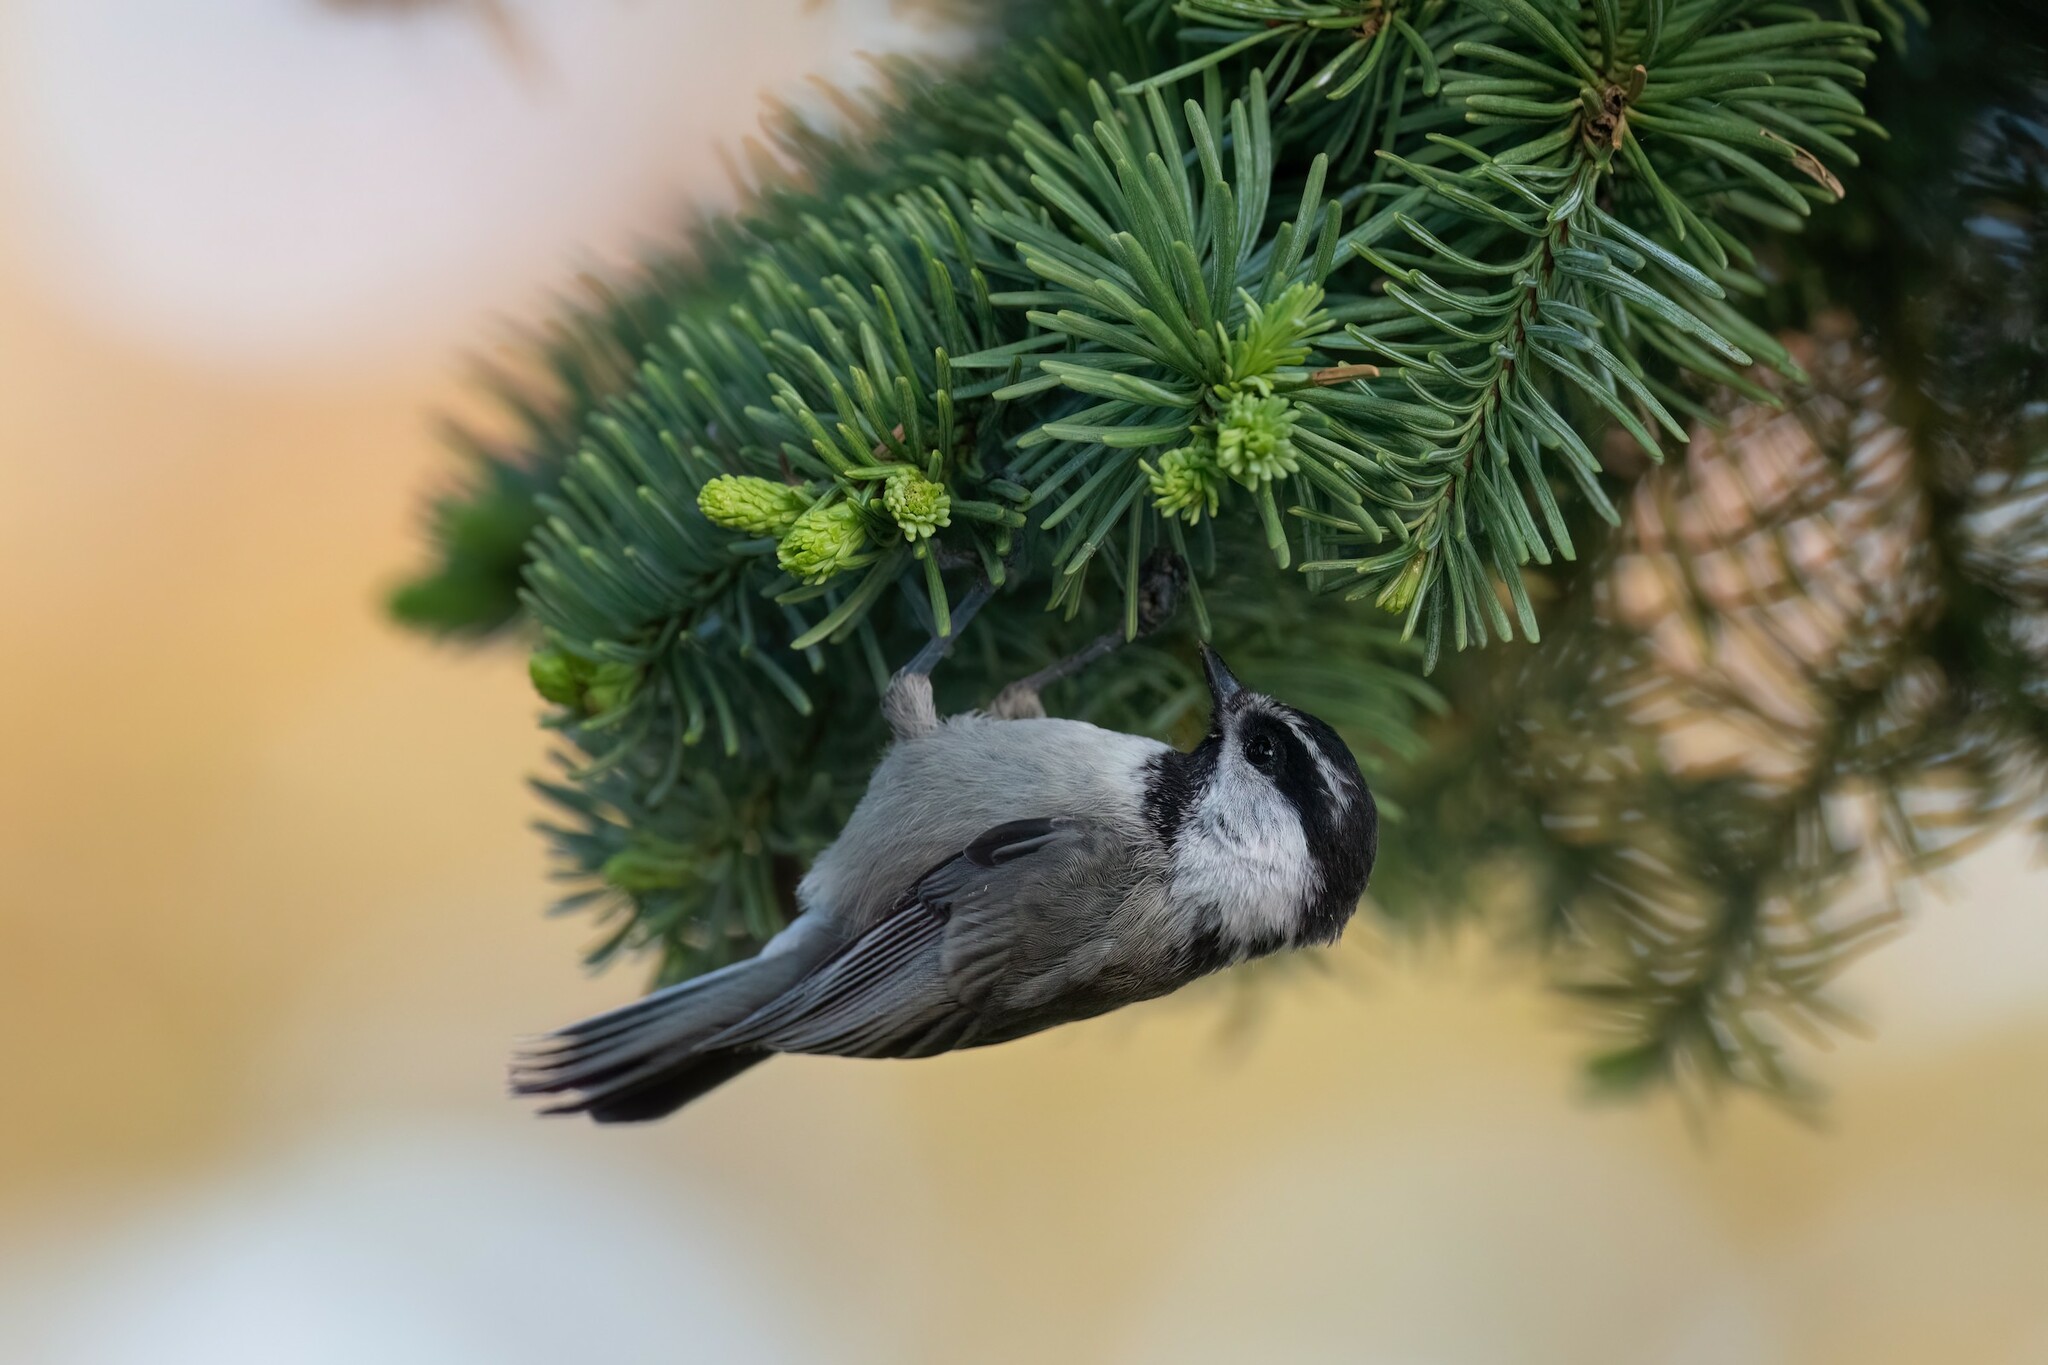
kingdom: Animalia
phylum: Chordata
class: Aves
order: Passeriformes
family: Paridae
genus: Poecile
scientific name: Poecile gambeli
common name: Mountain chickadee
